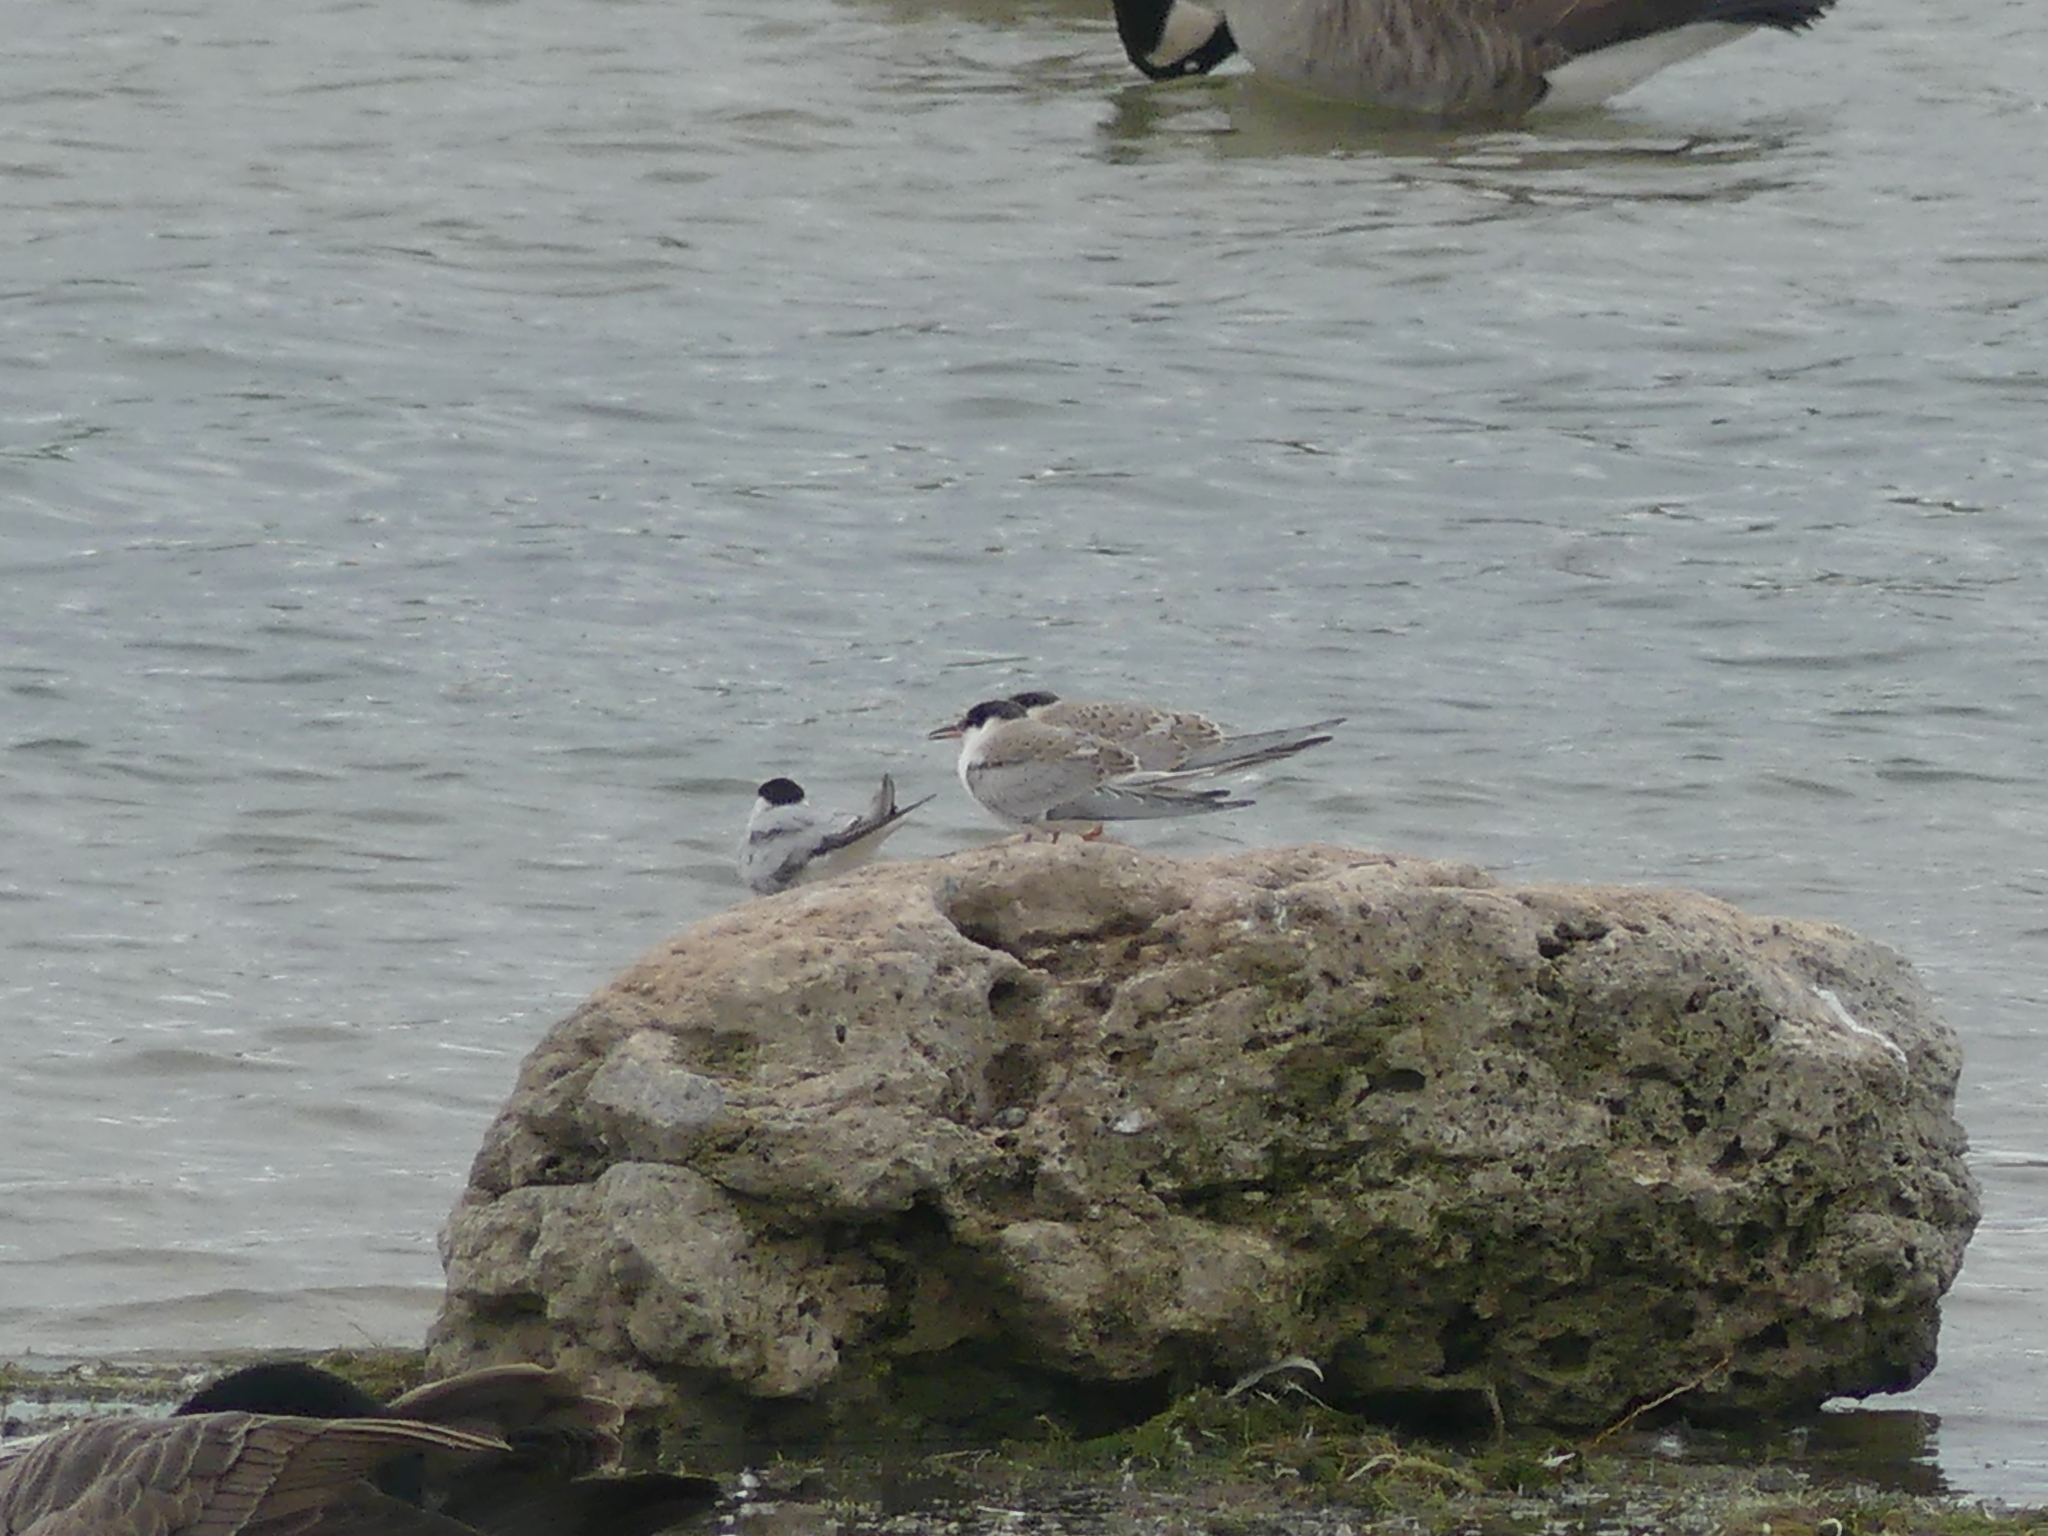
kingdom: Animalia
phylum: Chordata
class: Aves
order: Charadriiformes
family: Laridae
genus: Sterna
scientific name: Sterna hirundo
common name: Common tern
